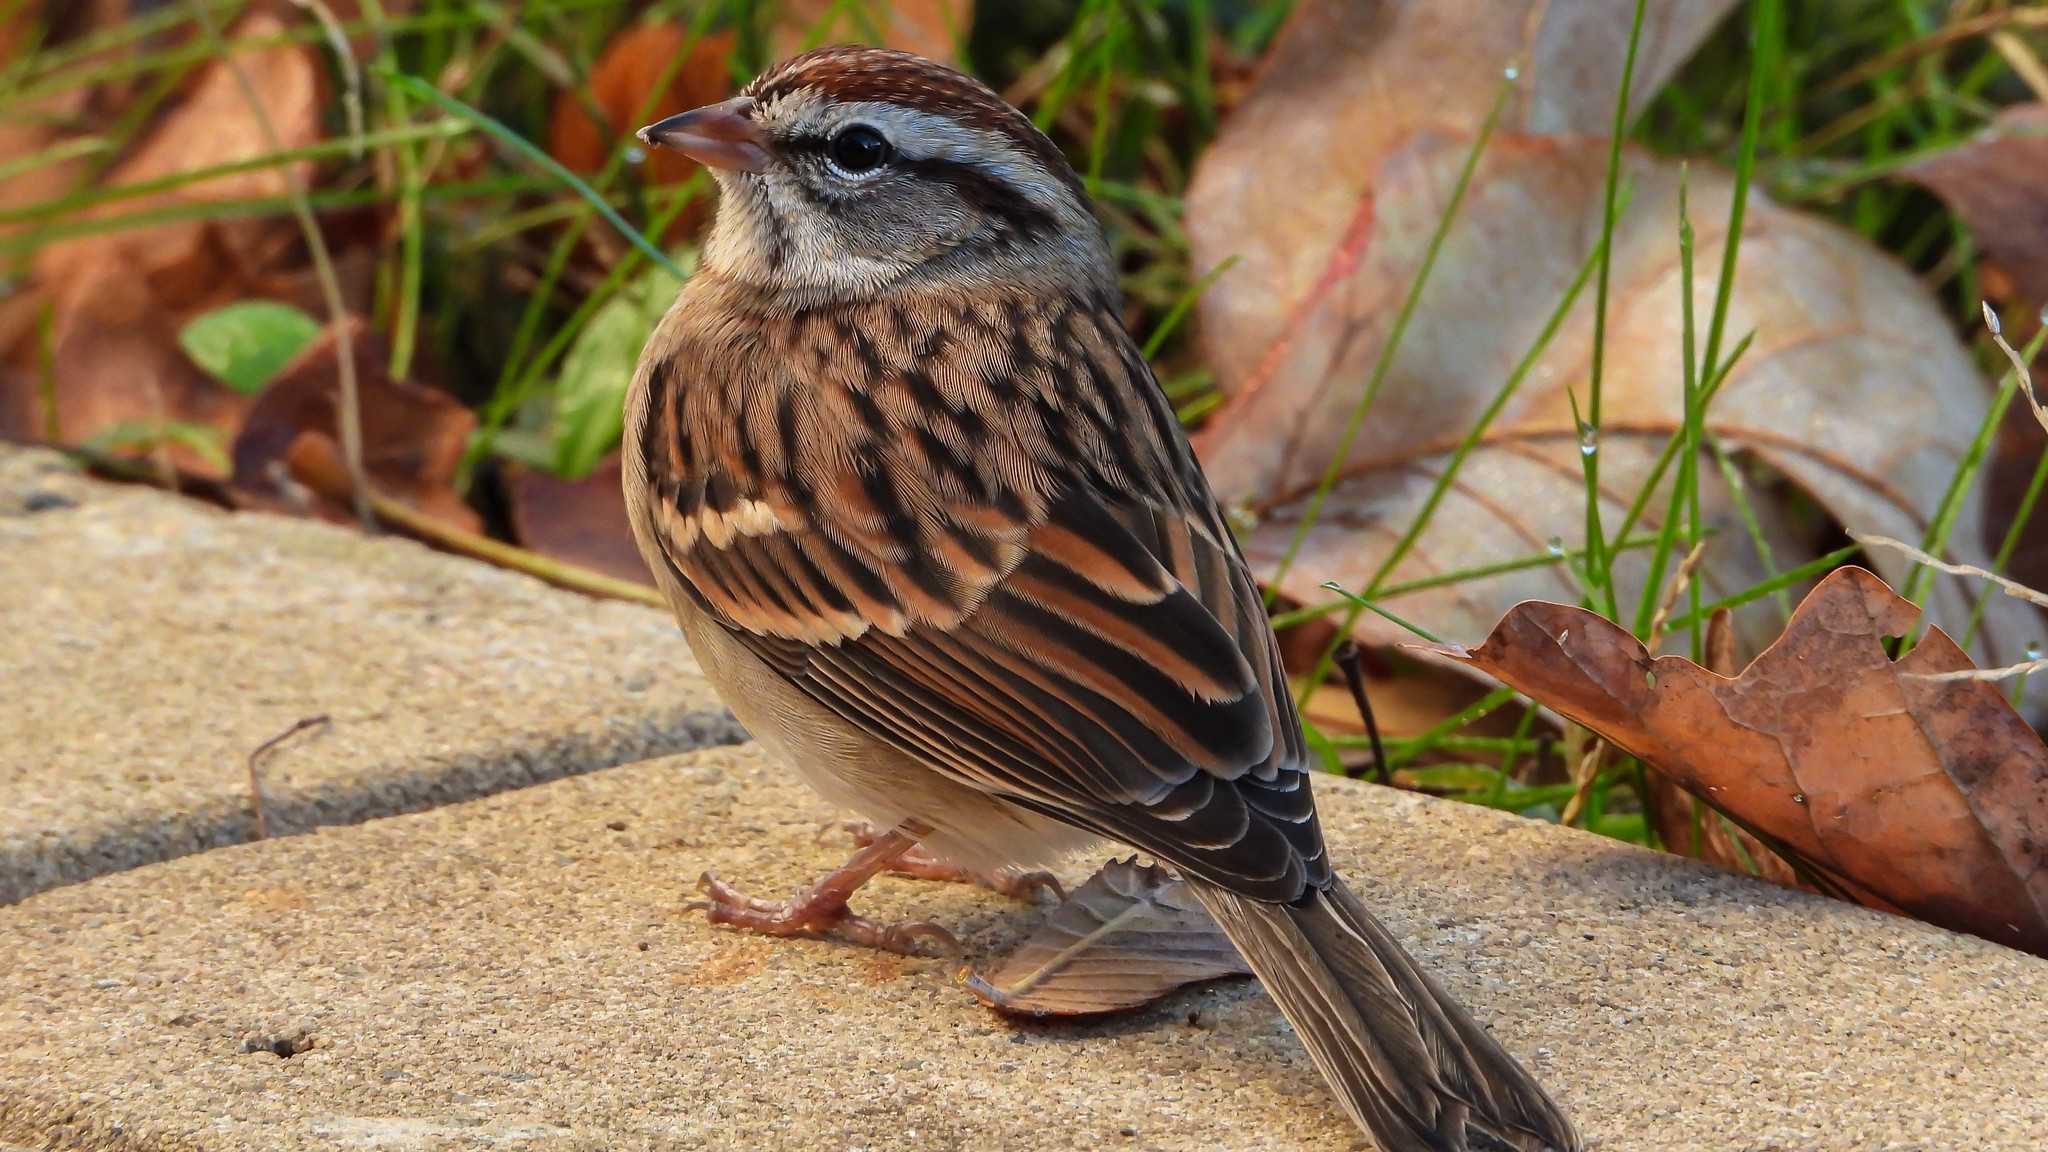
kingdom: Animalia
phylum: Chordata
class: Aves
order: Passeriformes
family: Passerellidae
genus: Spizella
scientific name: Spizella passerina
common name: Chipping sparrow
